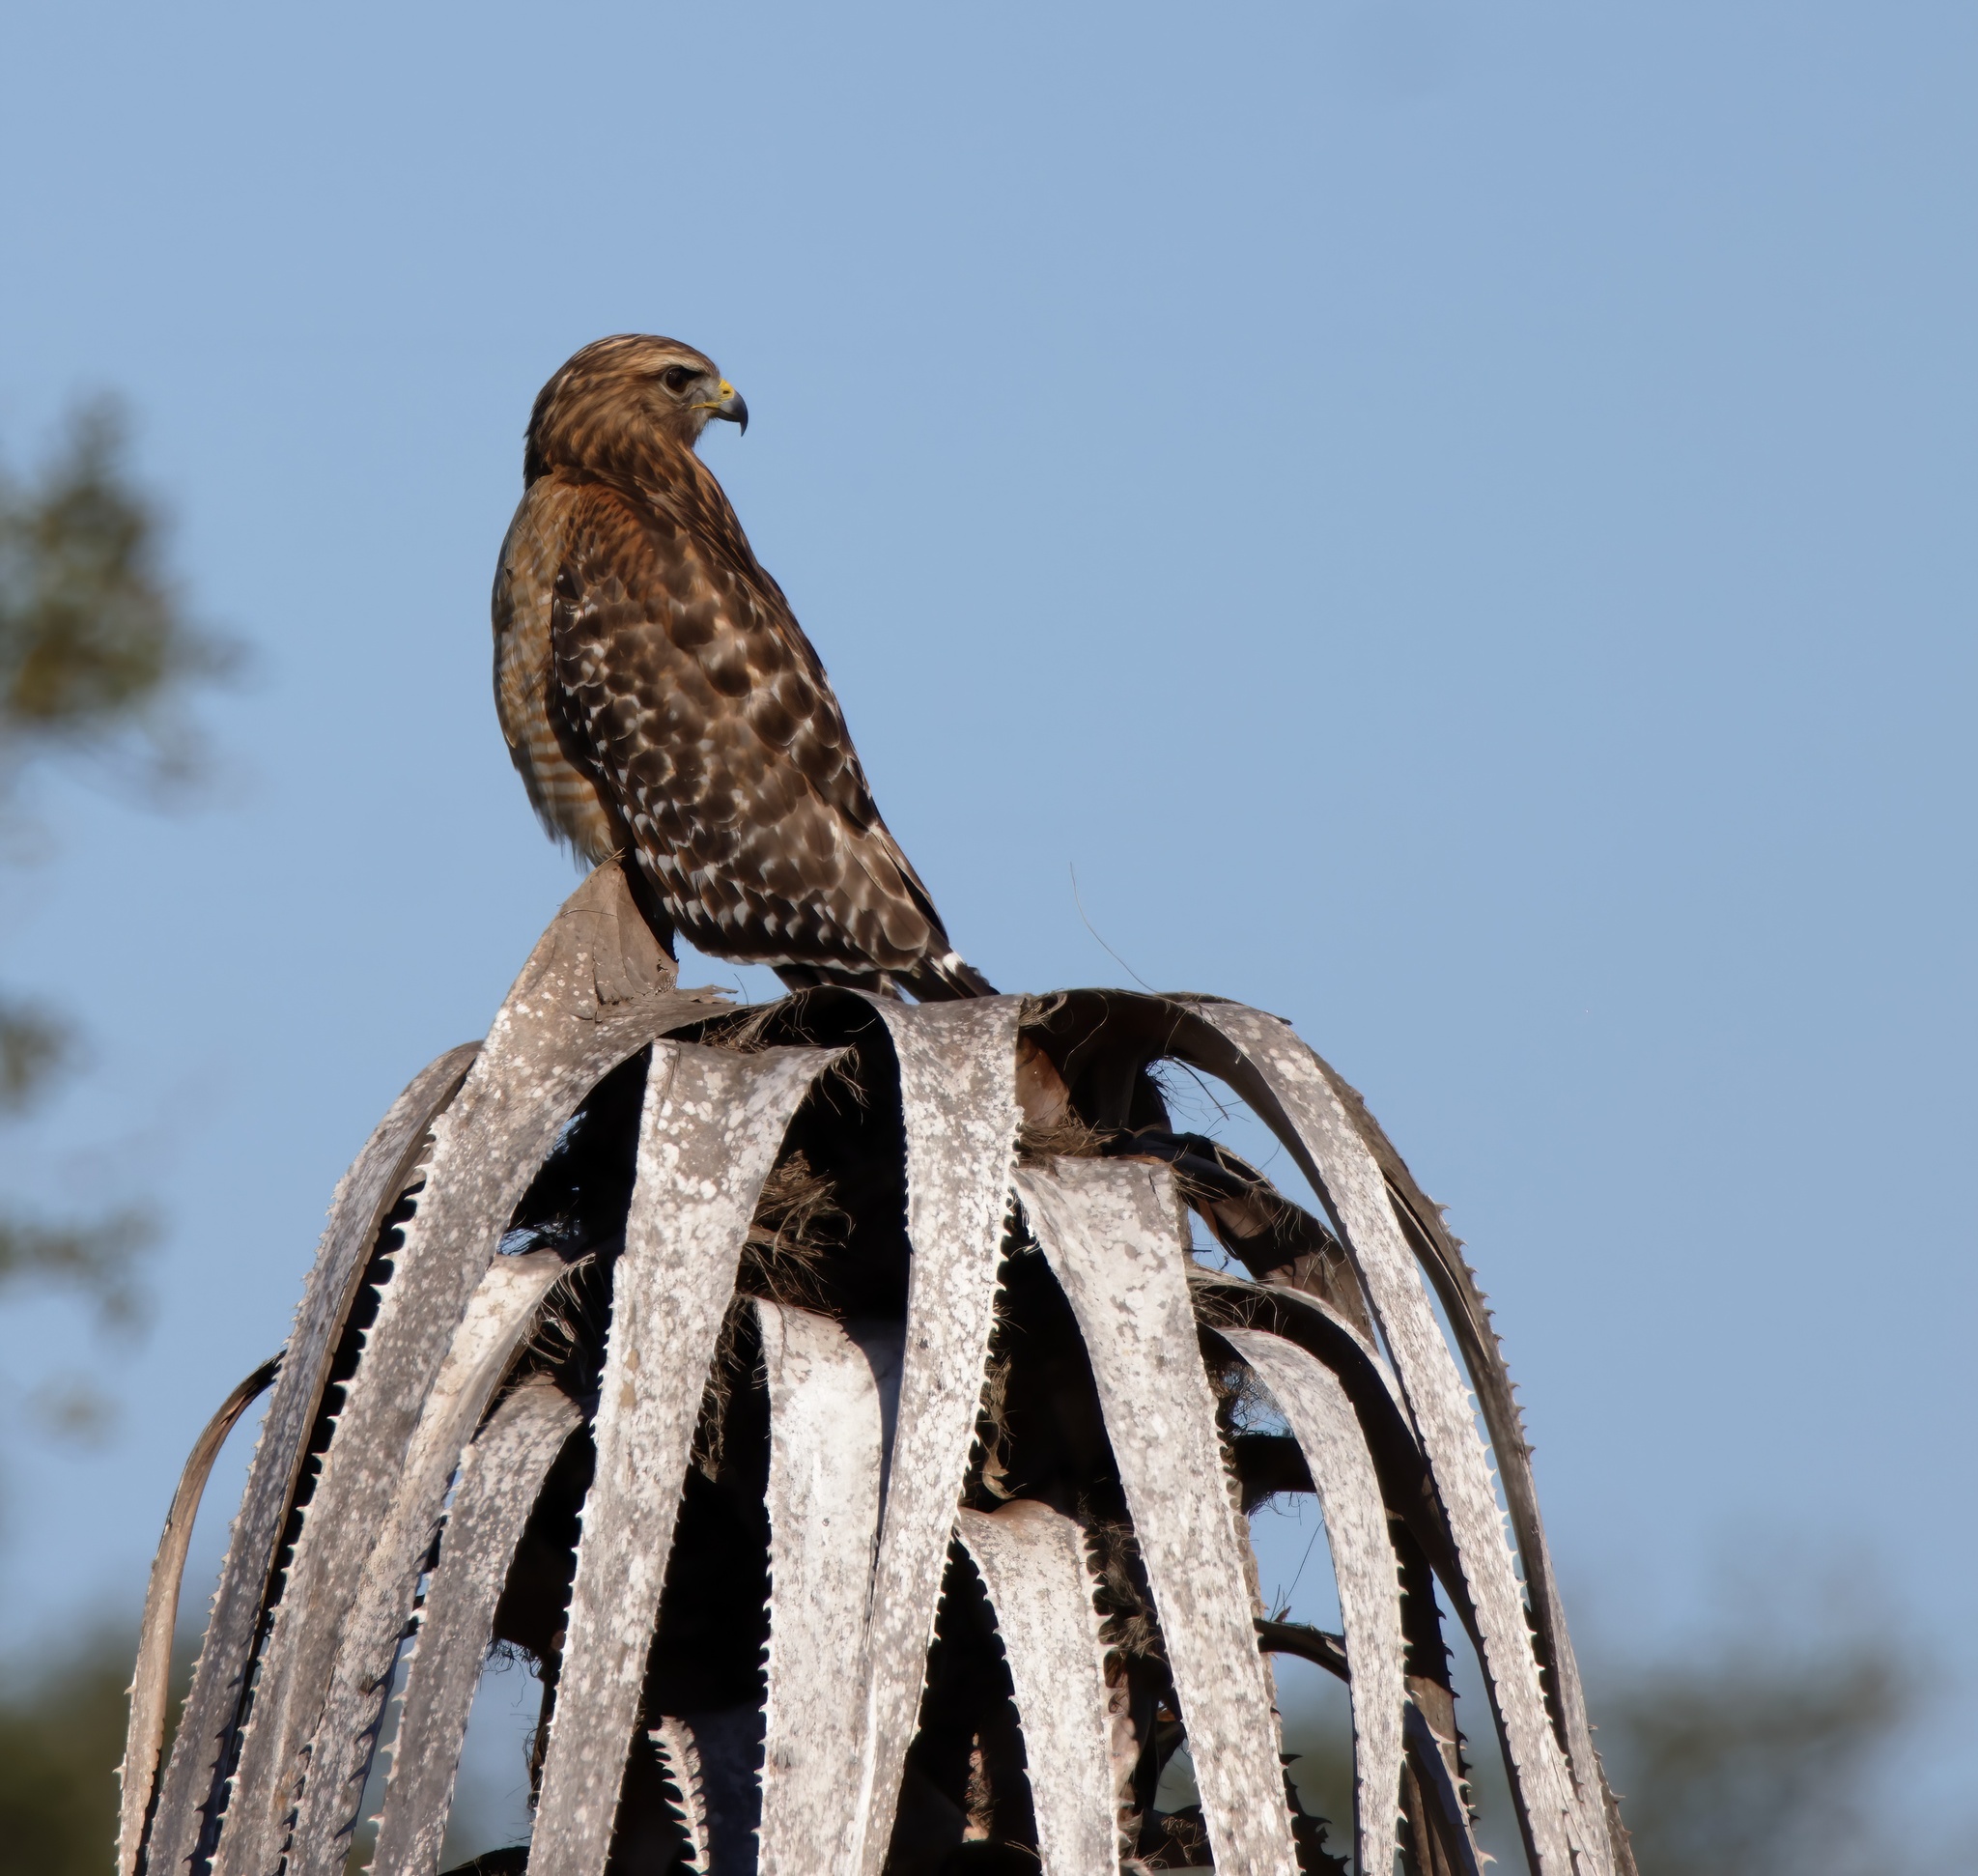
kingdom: Animalia
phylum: Chordata
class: Aves
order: Accipitriformes
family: Accipitridae
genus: Buteo
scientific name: Buteo lineatus
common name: Red-shouldered hawk
